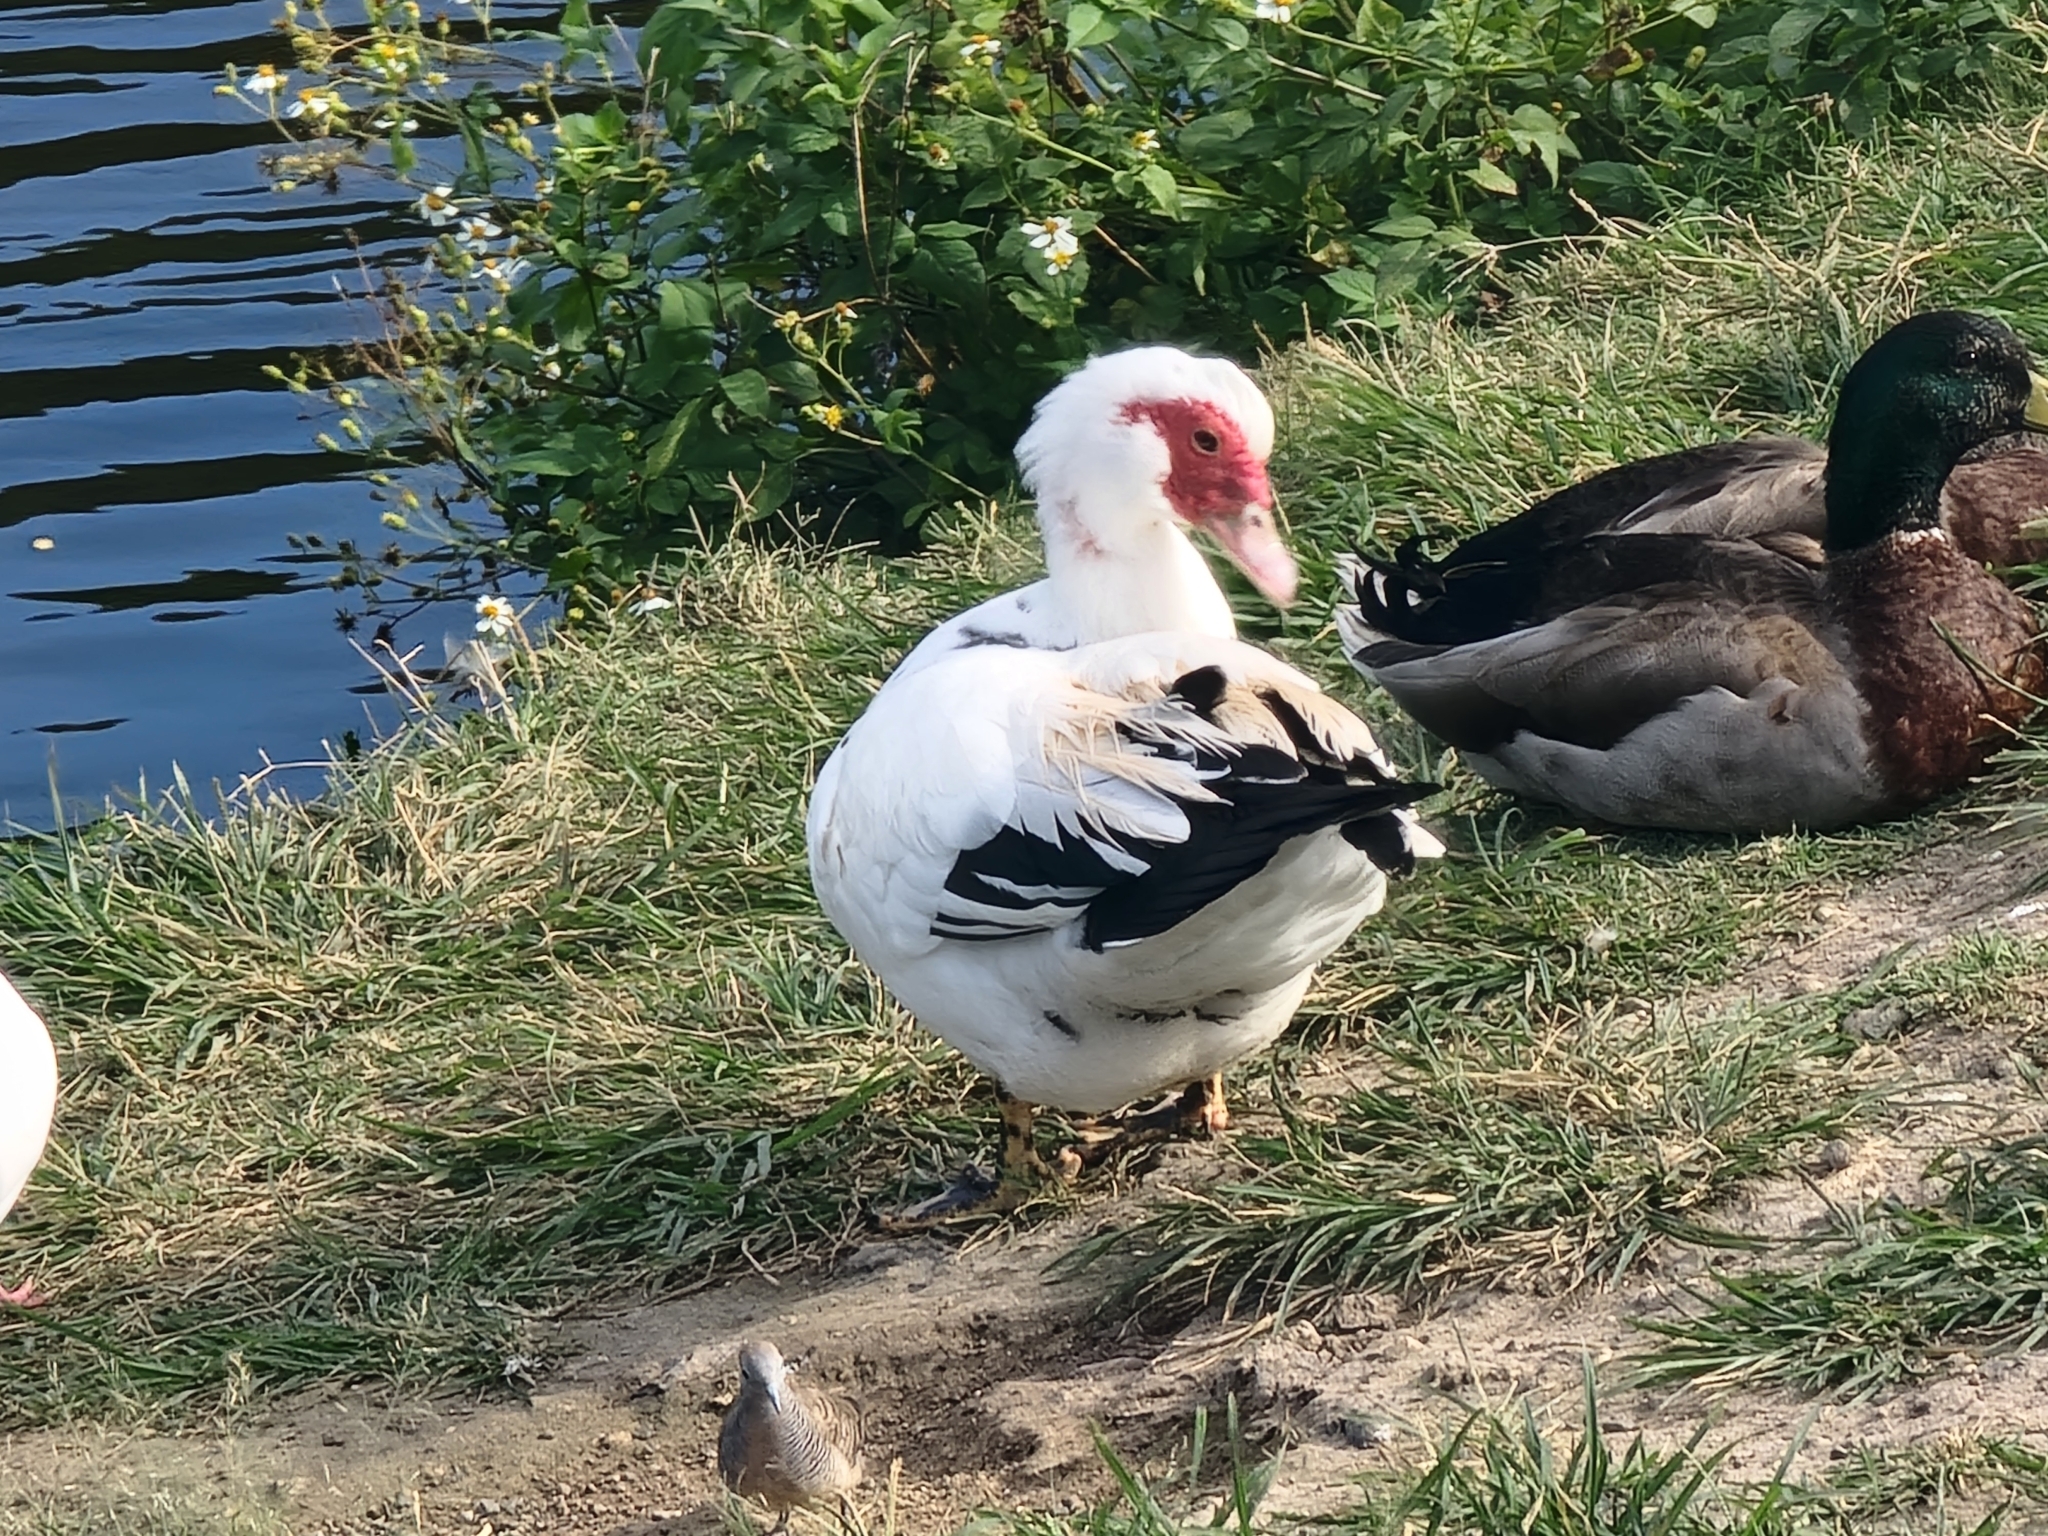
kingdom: Animalia
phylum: Chordata
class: Aves
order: Anseriformes
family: Anatidae
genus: Cairina
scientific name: Cairina moschata
